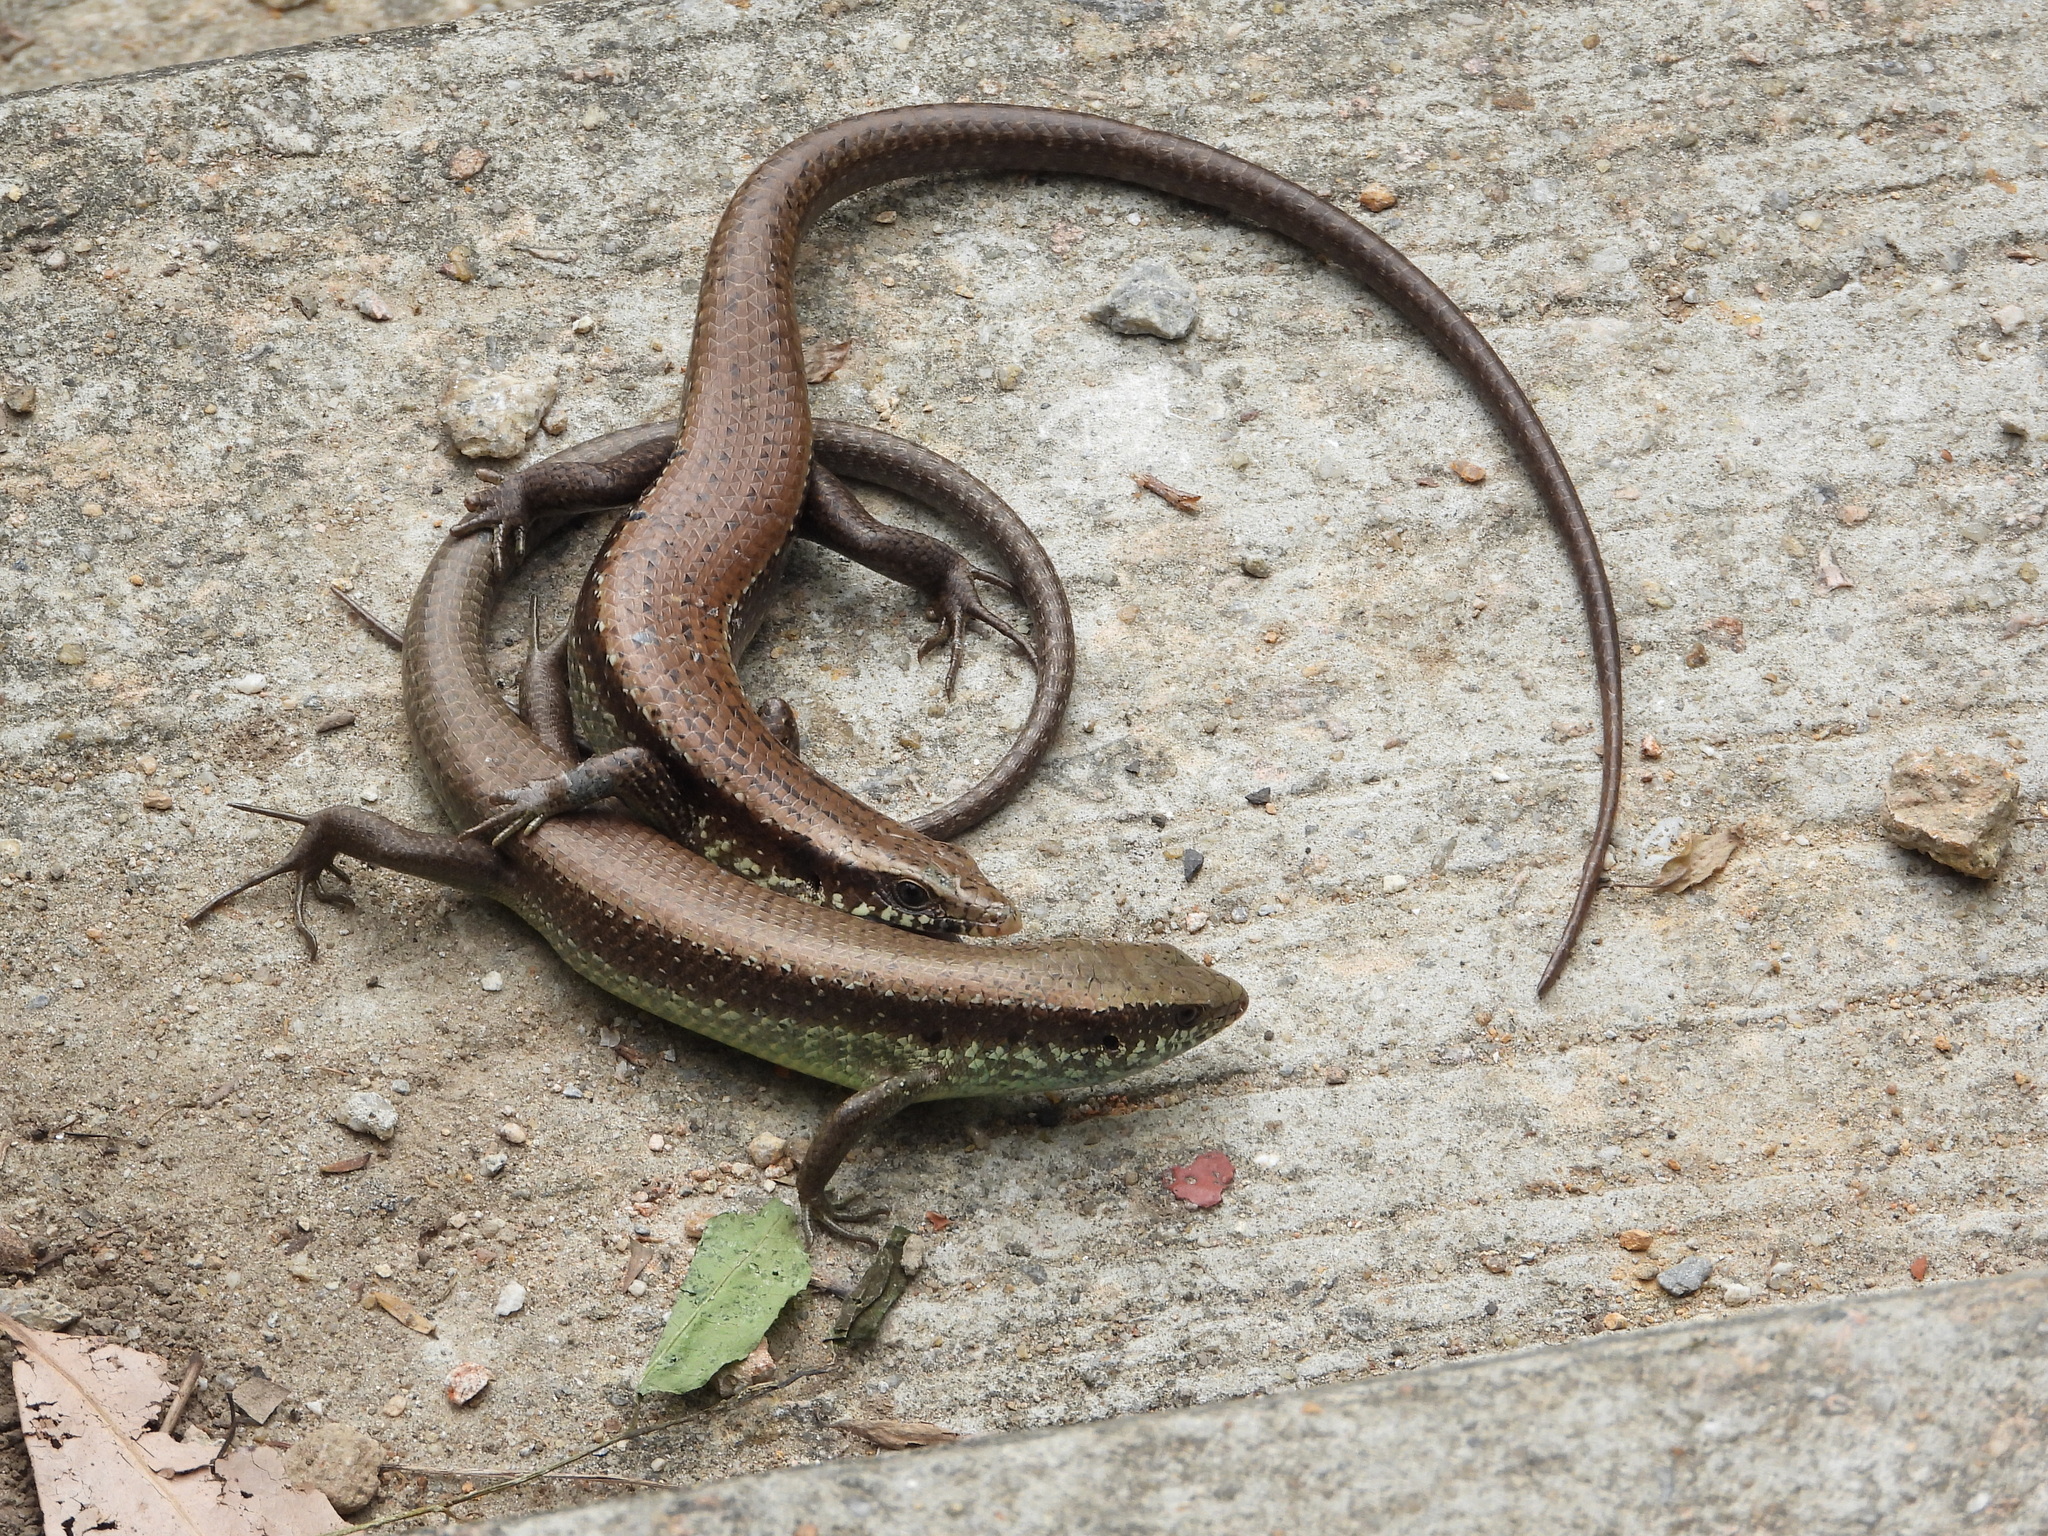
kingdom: Animalia
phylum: Chordata
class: Squamata
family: Scincidae
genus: Eutropis
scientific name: Eutropis longicaudata
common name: Long-tailed sun skink
